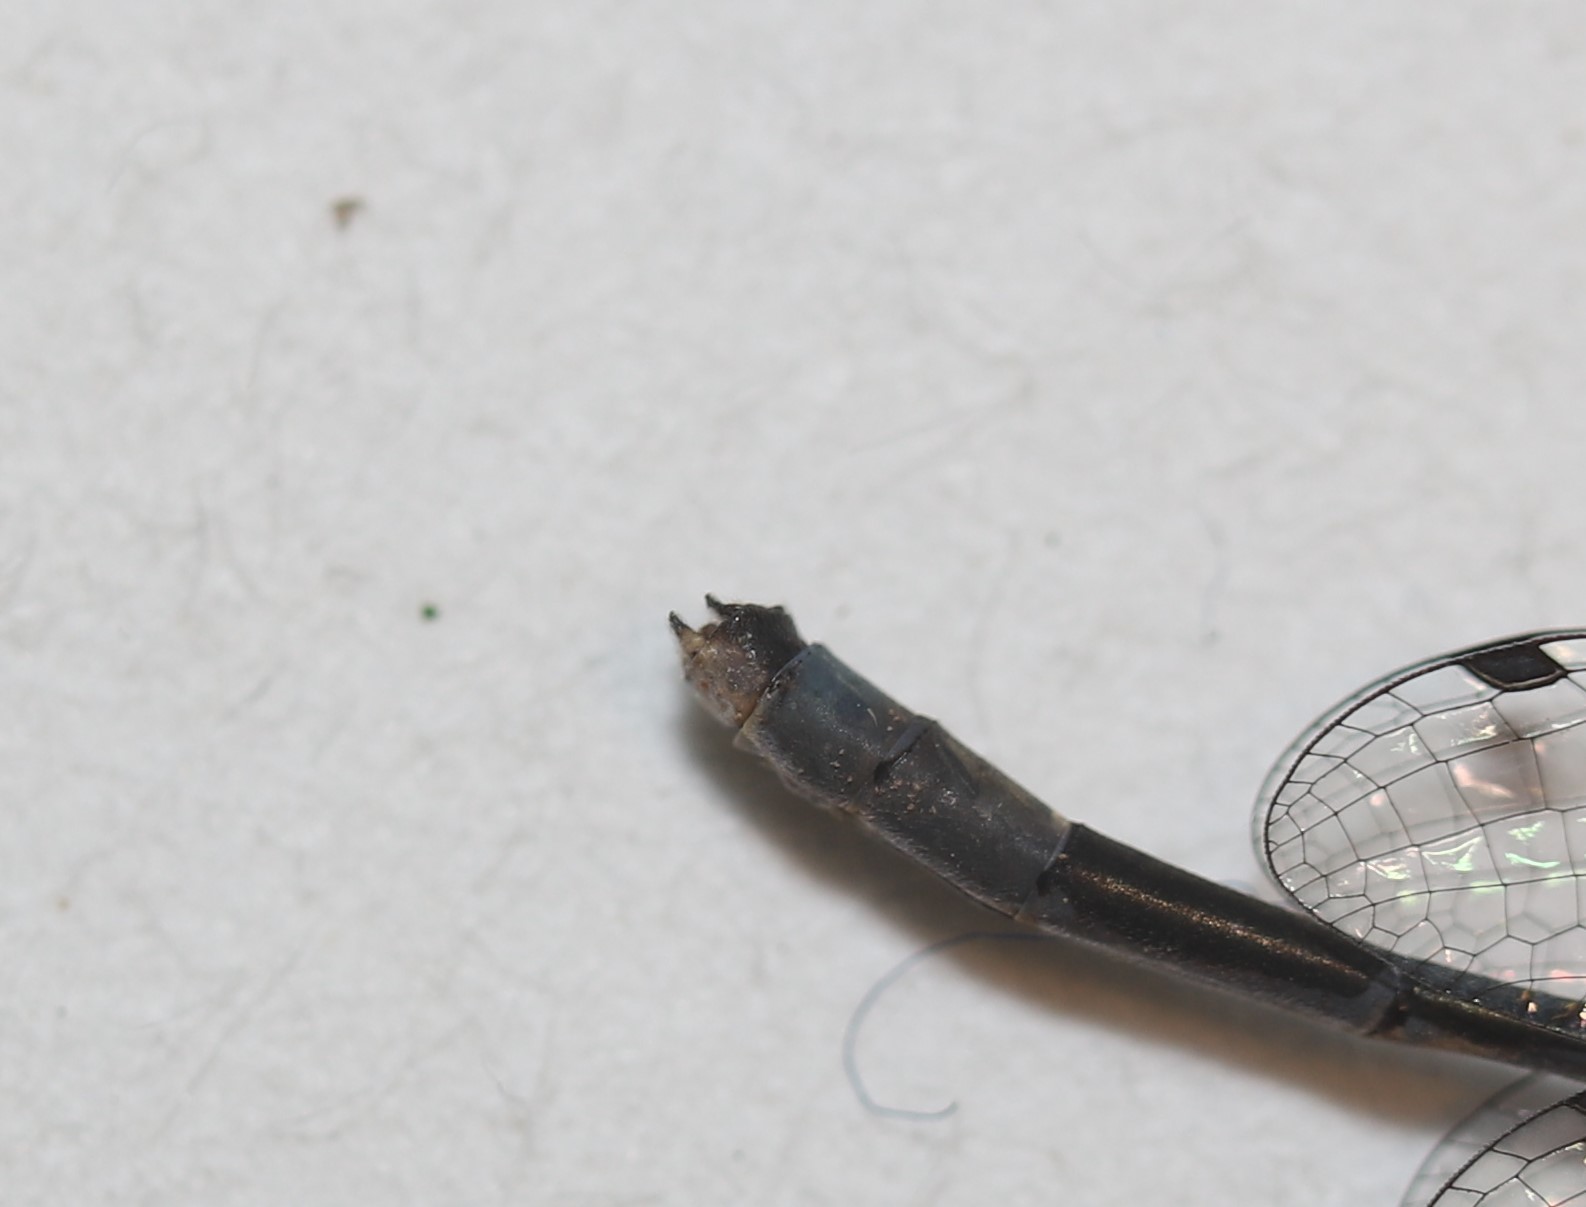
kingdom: Animalia
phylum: Arthropoda
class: Insecta
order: Odonata
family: Coenagrionidae
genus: Enallagma
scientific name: Enallagma hageni
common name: Hagen's bluet
